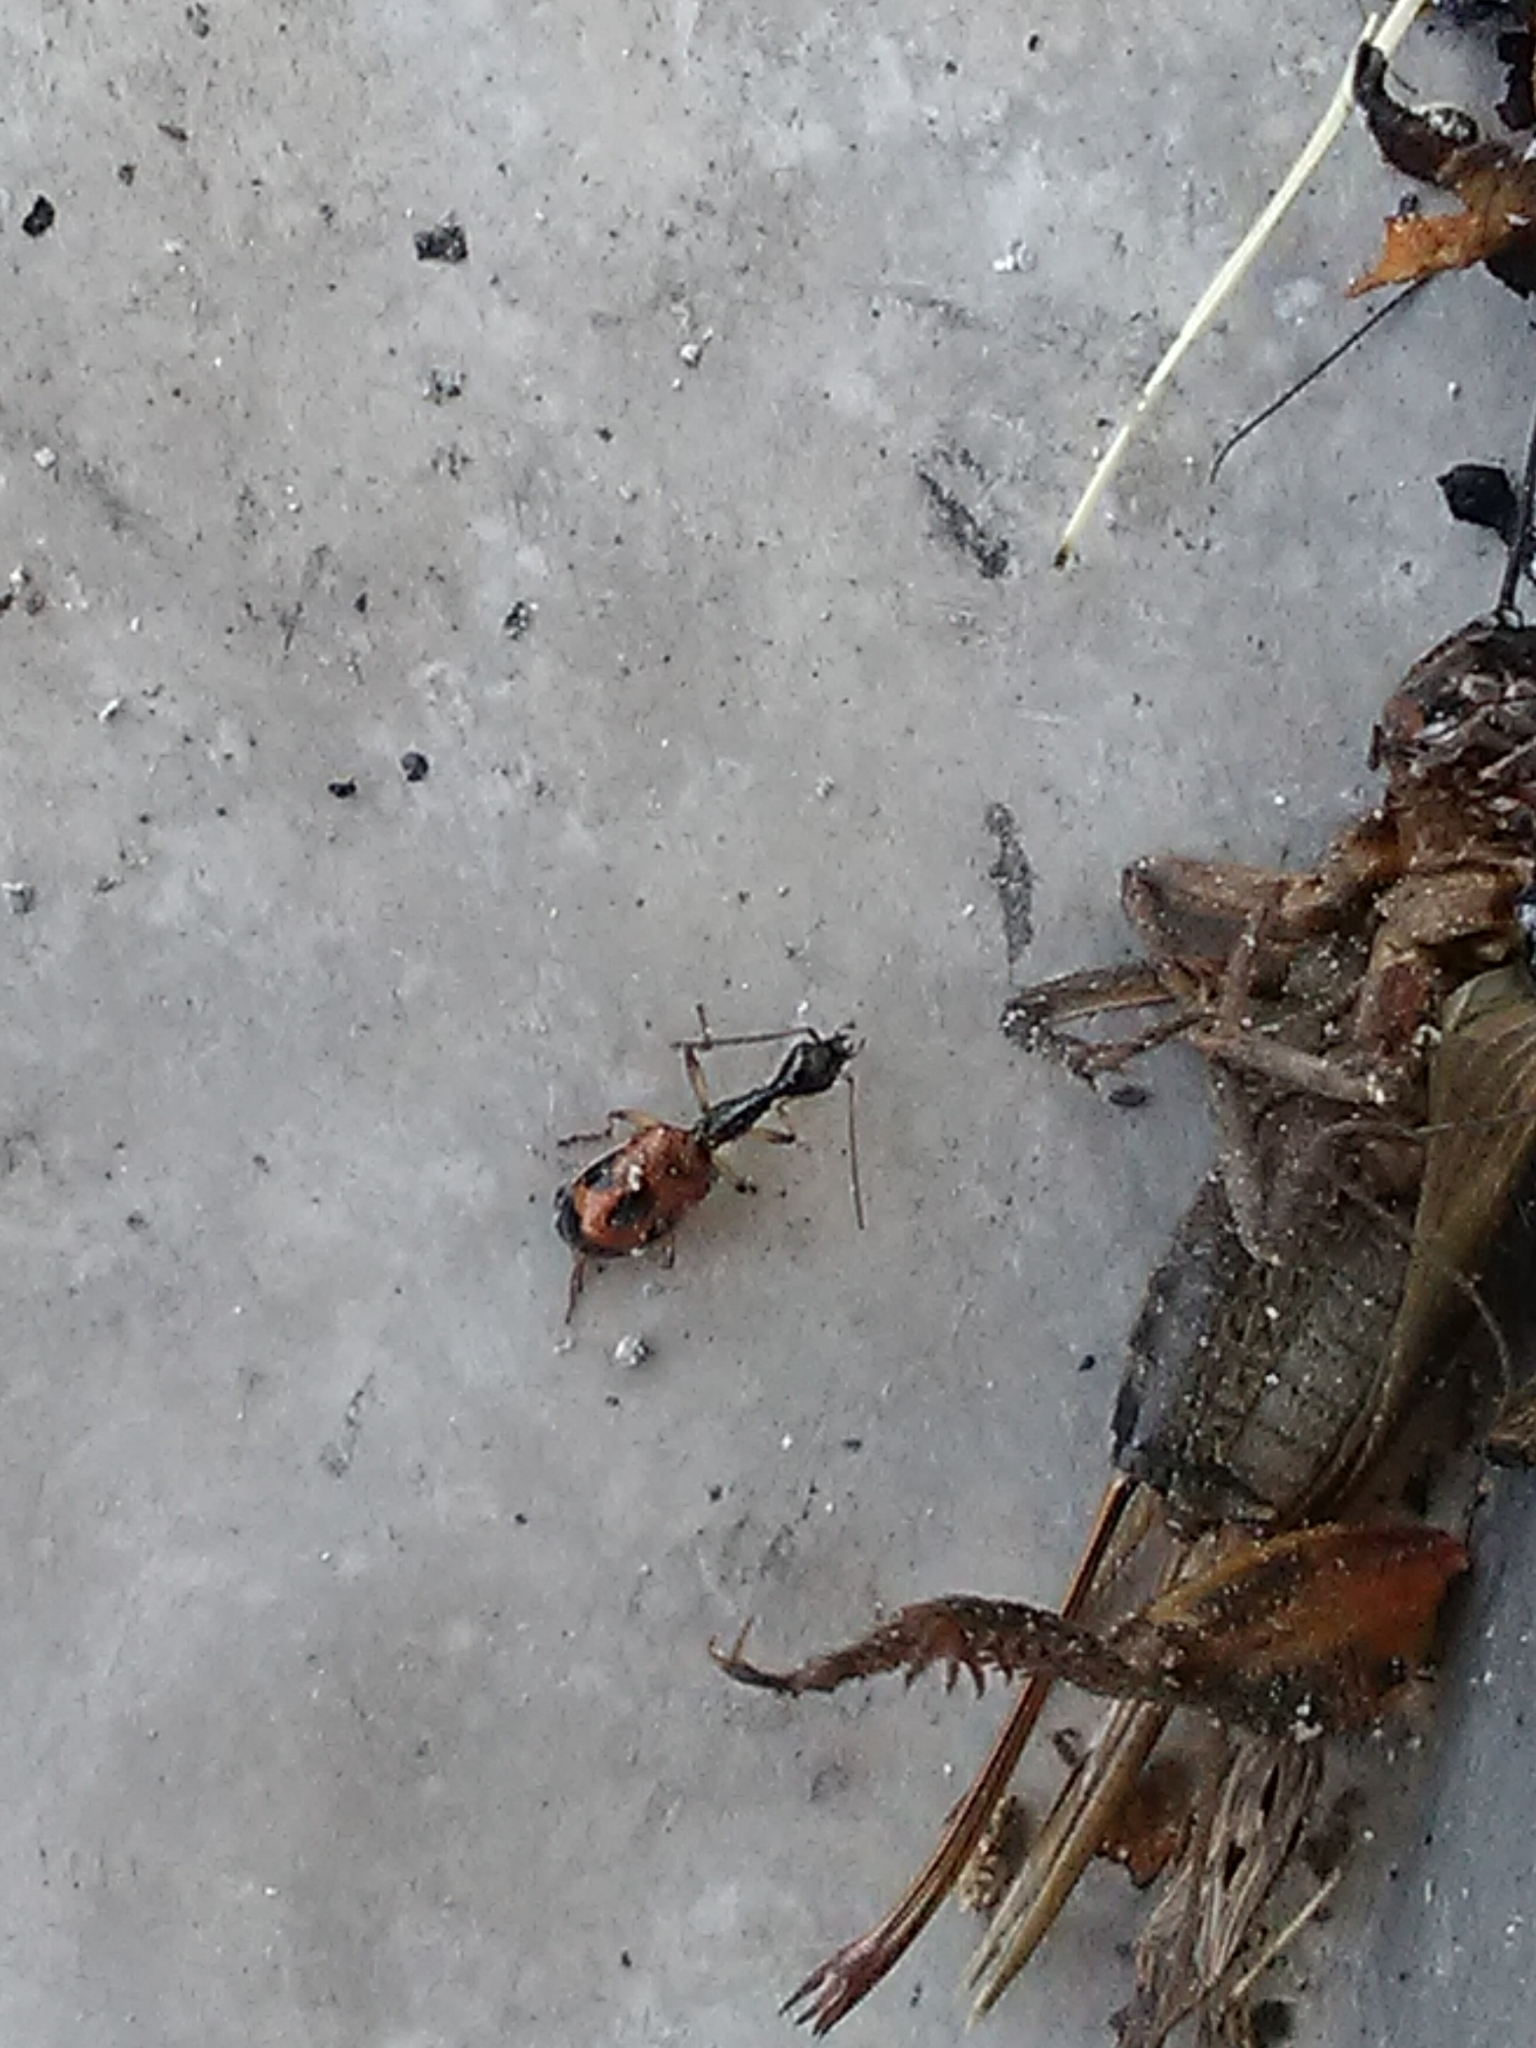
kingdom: Animalia
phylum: Arthropoda
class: Insecta
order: Coleoptera
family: Carabidae
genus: Colliuris
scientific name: Colliuris pensylvanica
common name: Long-necked ground beetle
